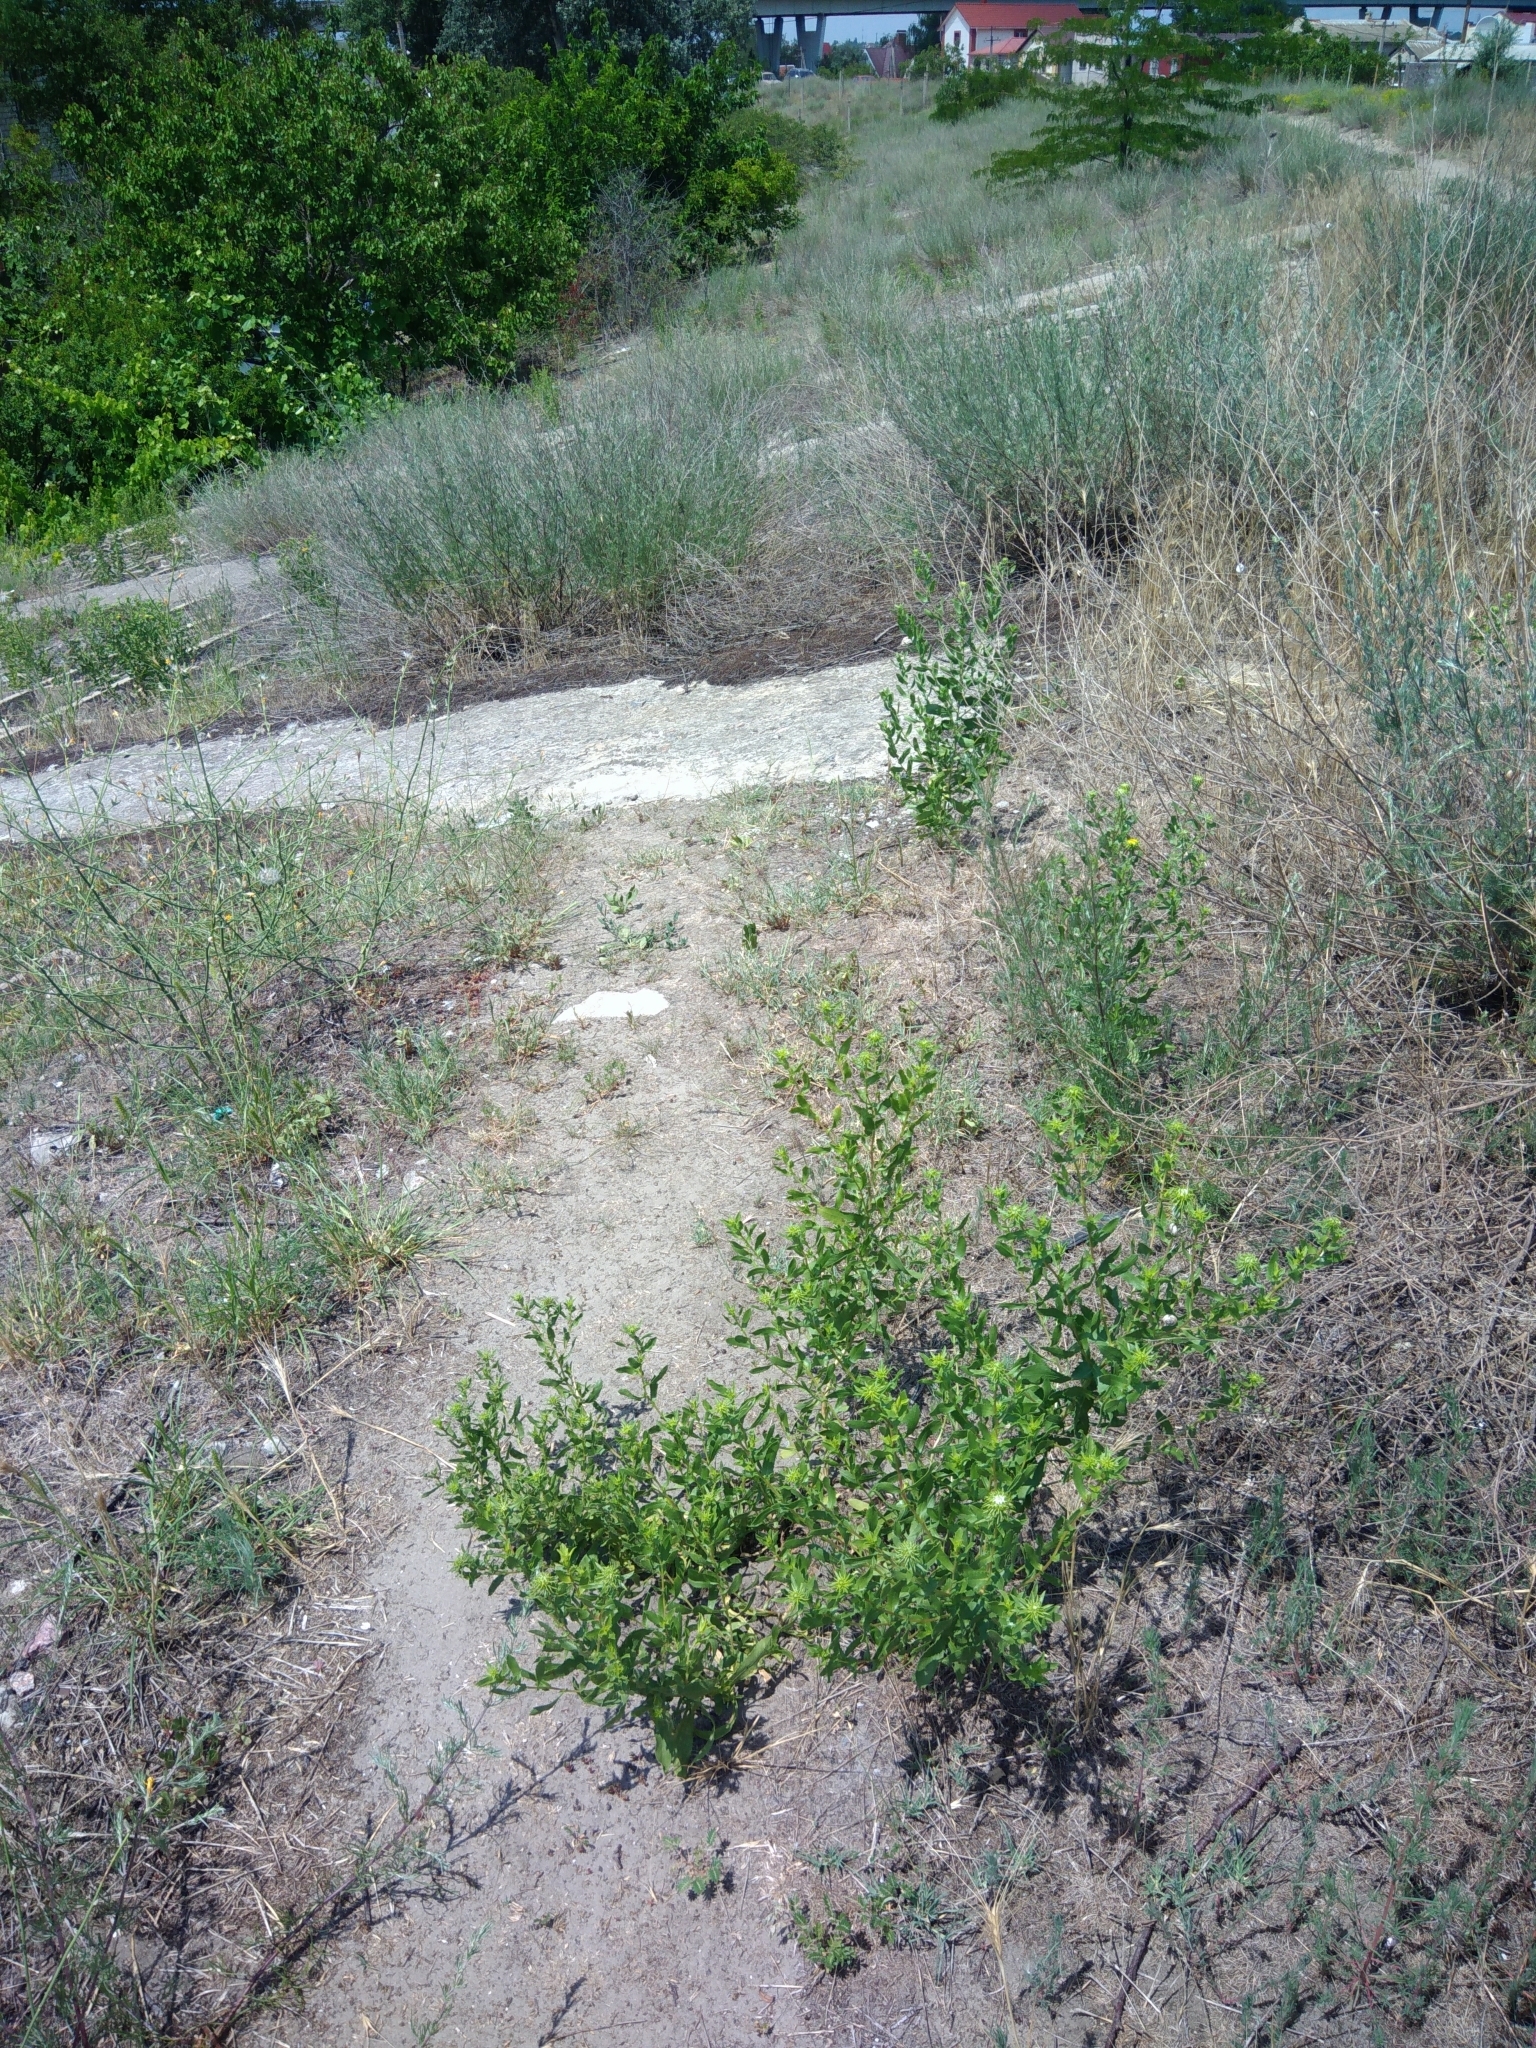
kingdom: Plantae
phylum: Tracheophyta
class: Magnoliopsida
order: Asterales
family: Asteraceae
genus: Grindelia
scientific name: Grindelia squarrosa
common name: Curly-cup gumweed
